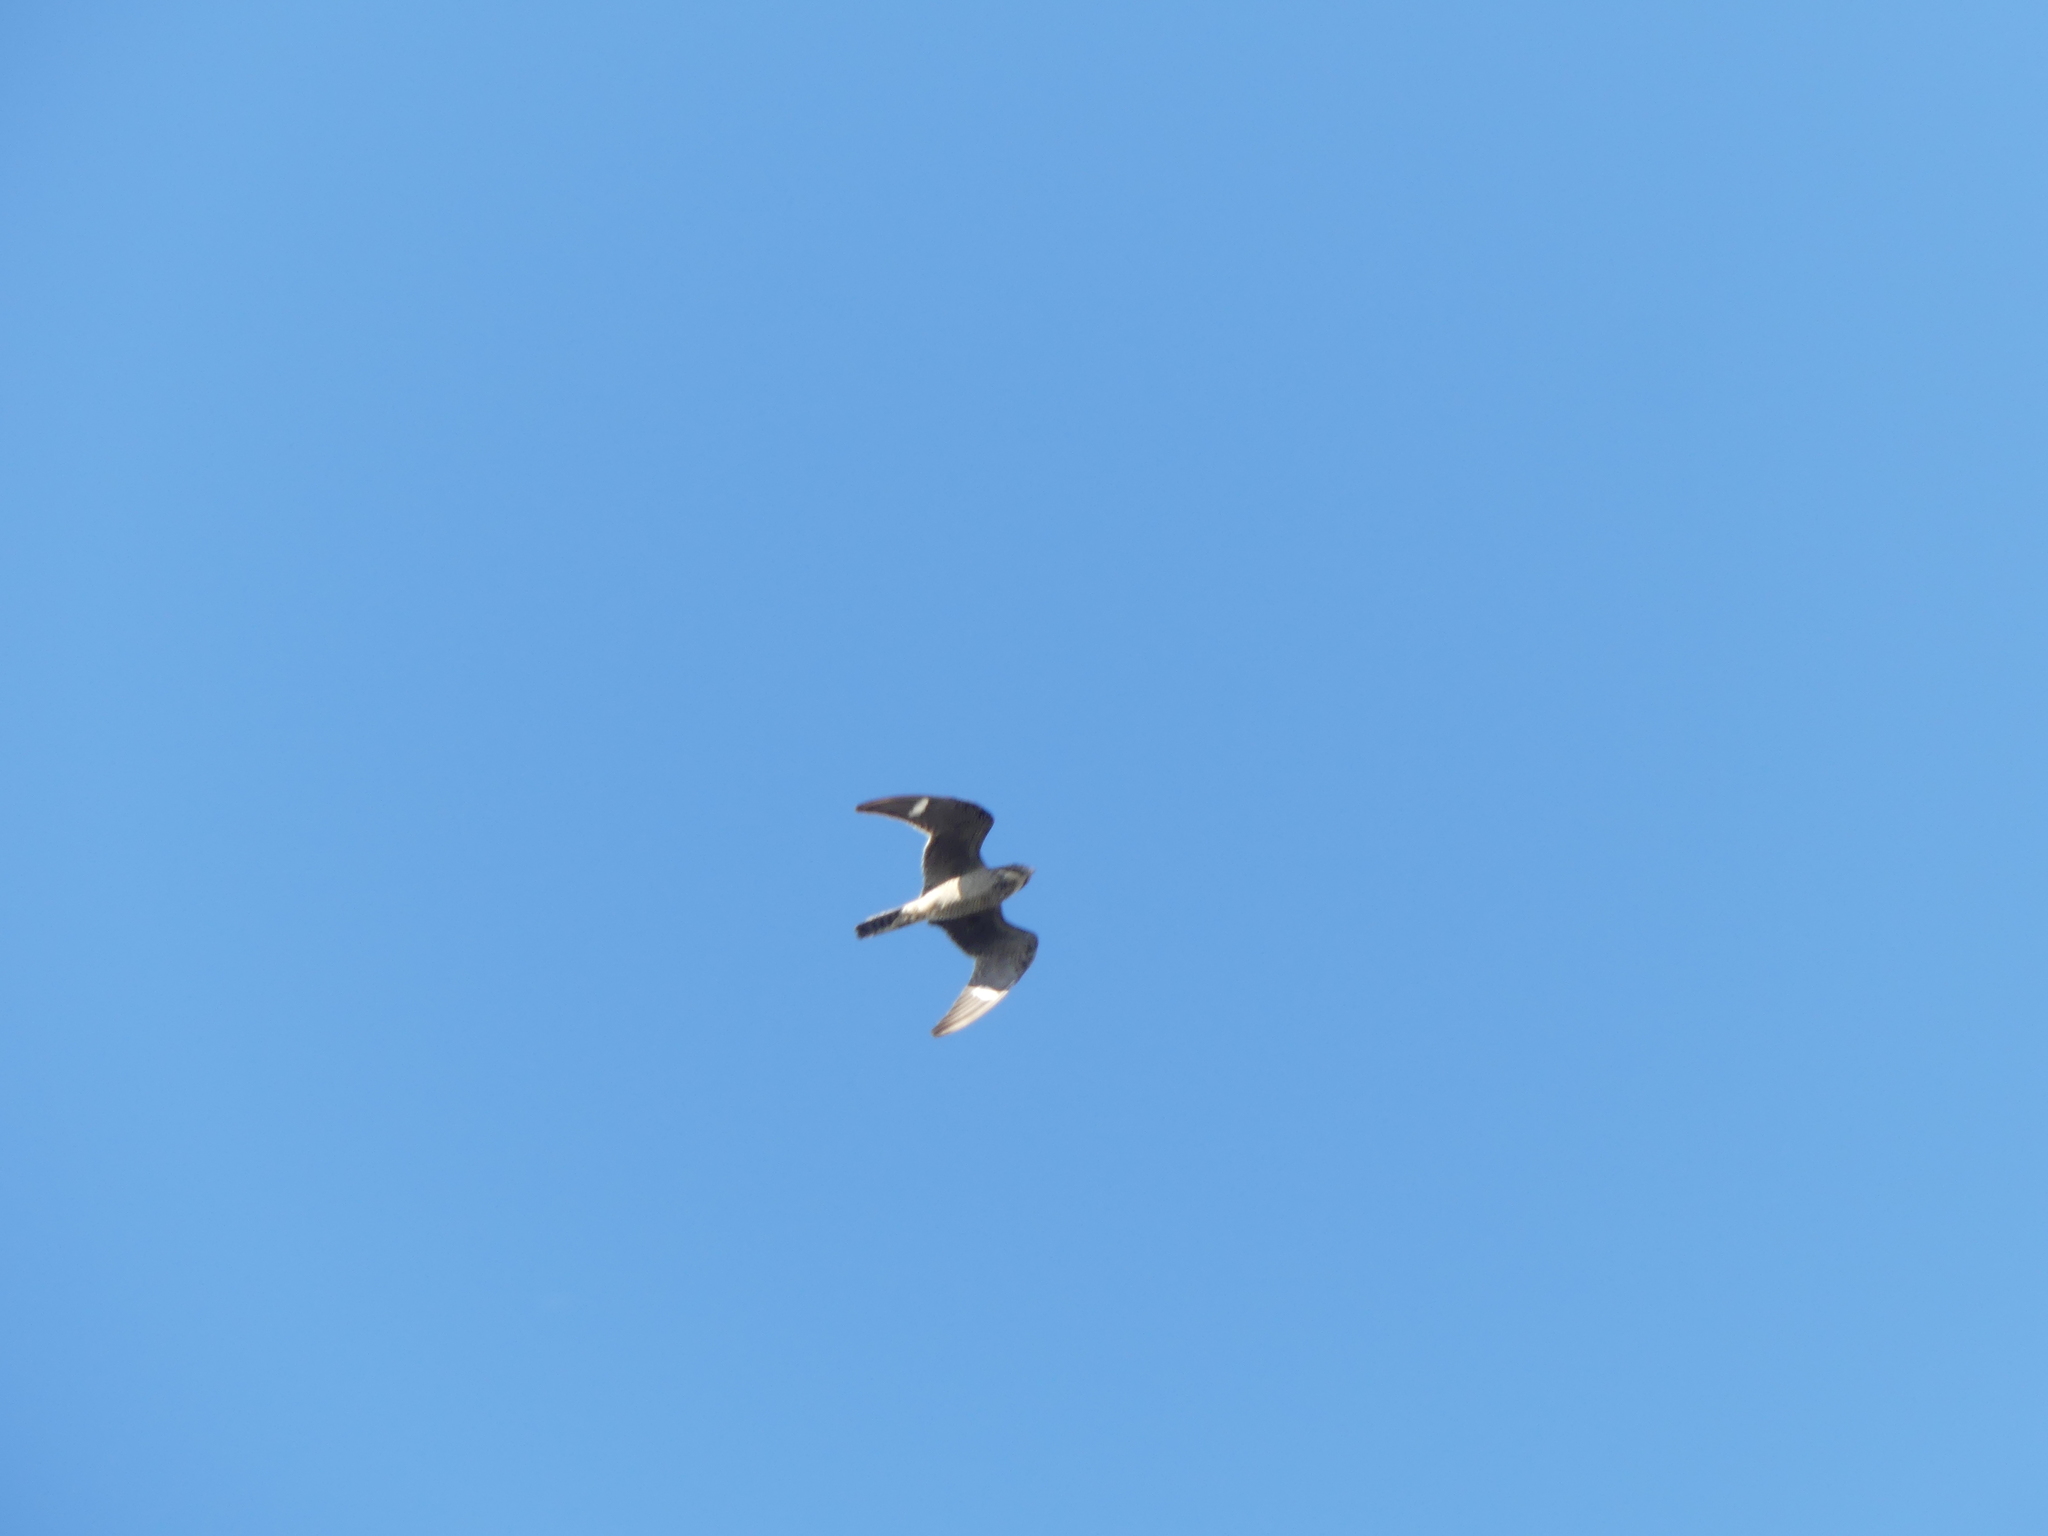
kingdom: Animalia
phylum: Chordata
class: Aves
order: Caprimulgiformes
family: Caprimulgidae
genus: Chordeiles
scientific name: Chordeiles minor
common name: Common nighthawk
